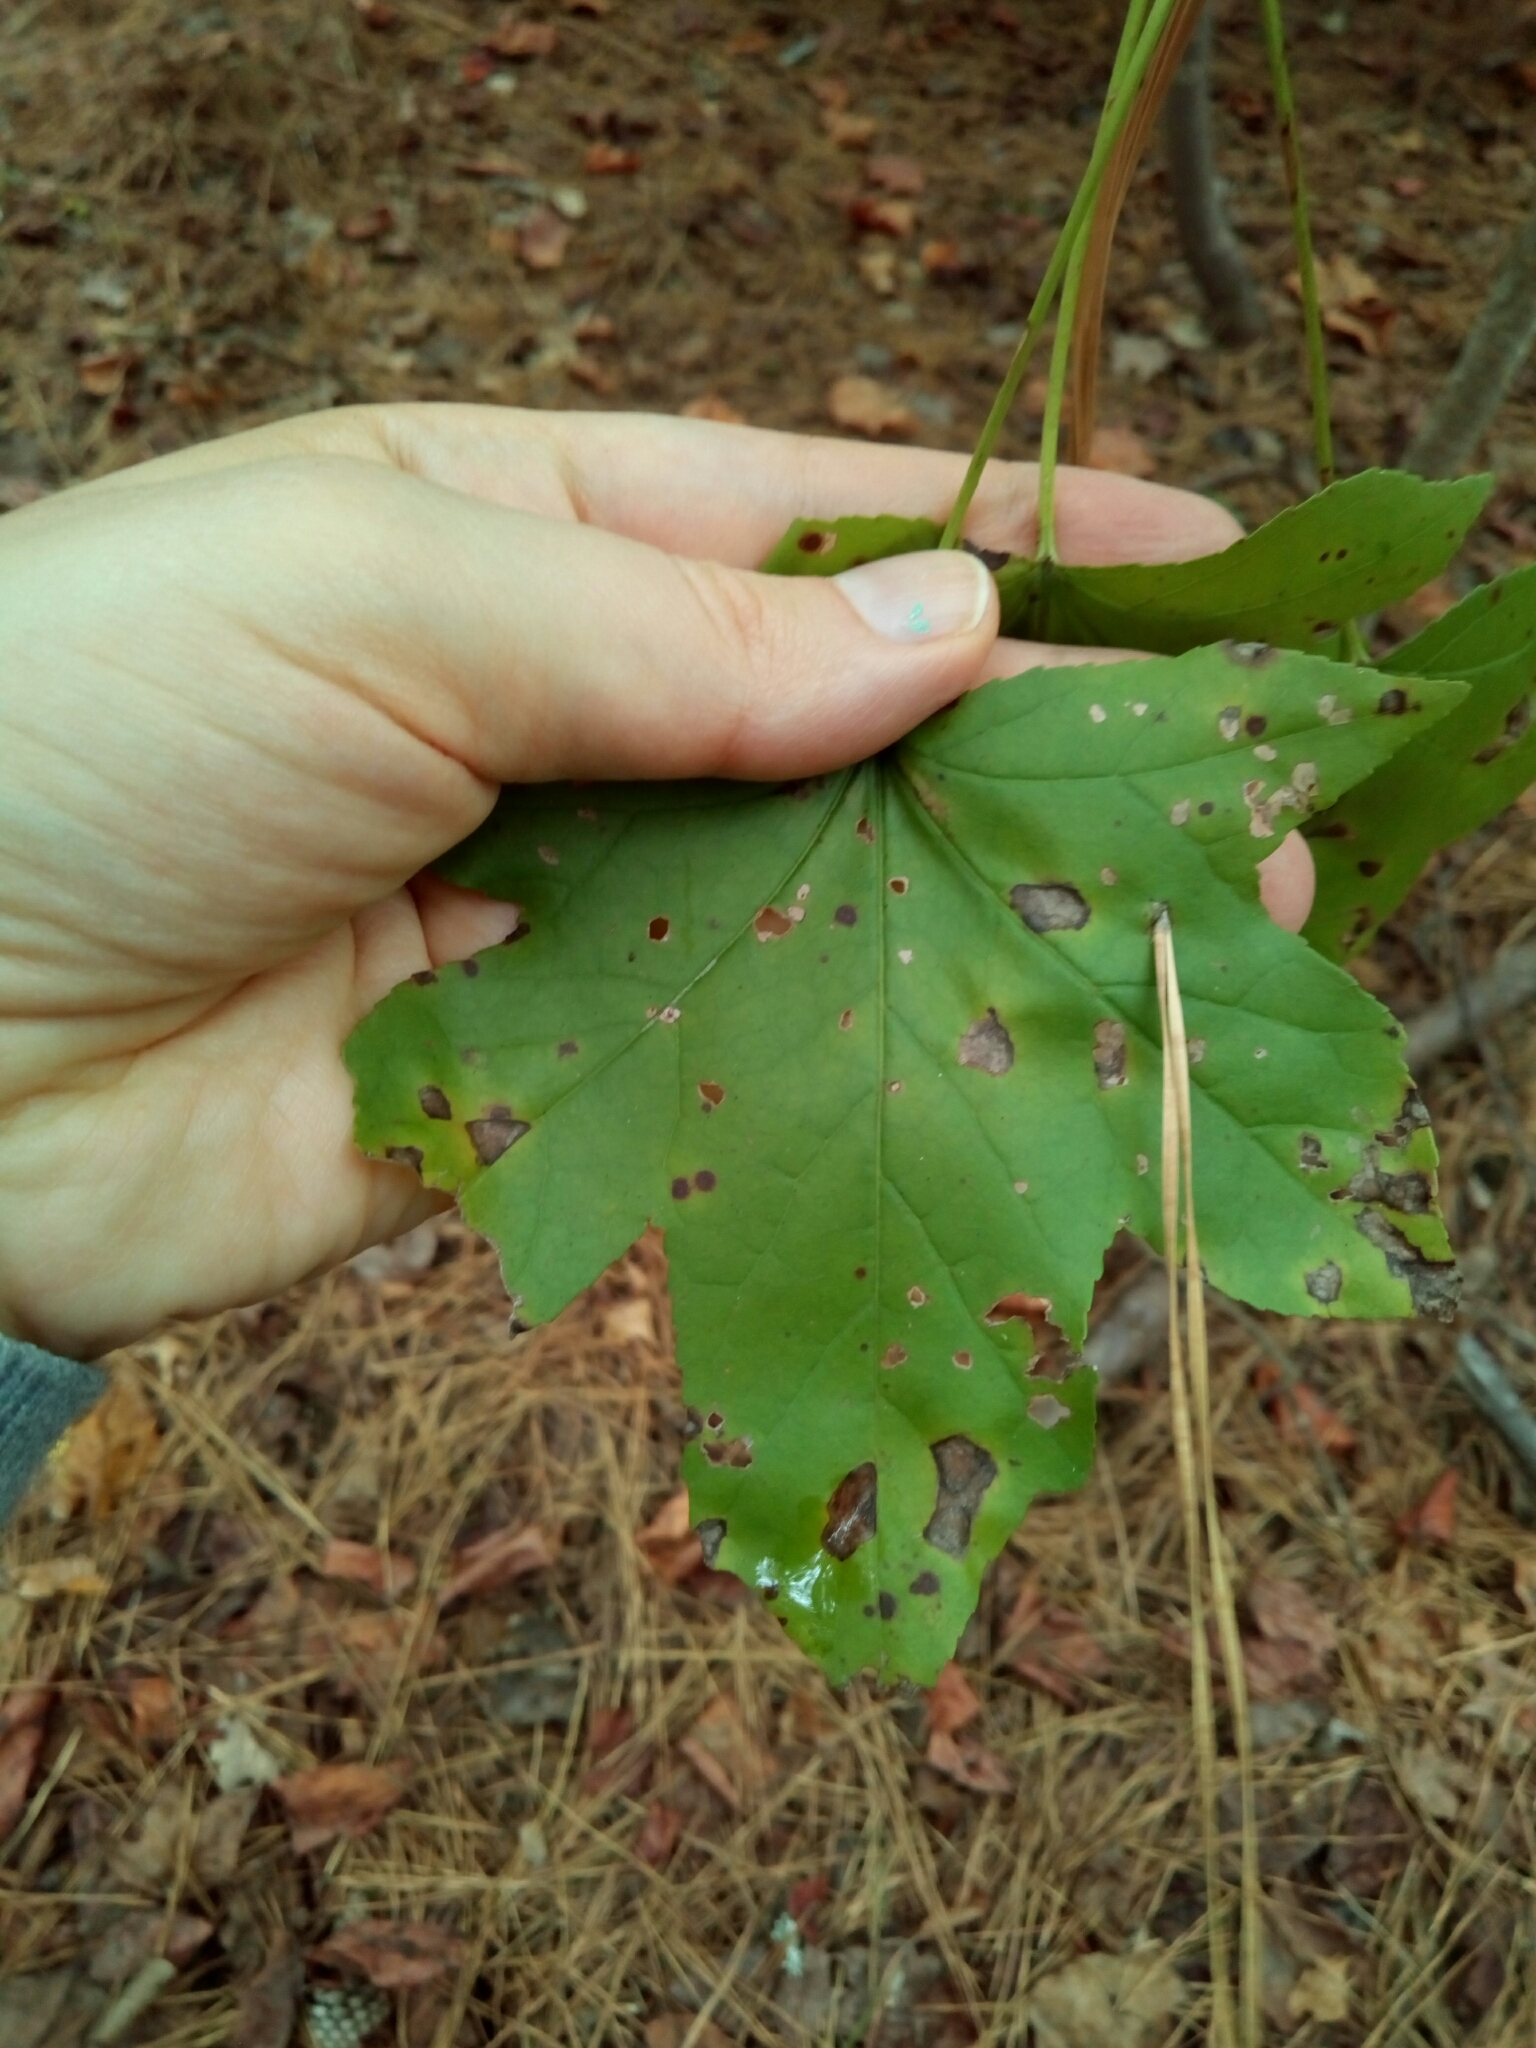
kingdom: Plantae
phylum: Tracheophyta
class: Magnoliopsida
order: Saxifragales
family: Altingiaceae
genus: Liquidambar
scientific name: Liquidambar styraciflua
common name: Sweet gum
